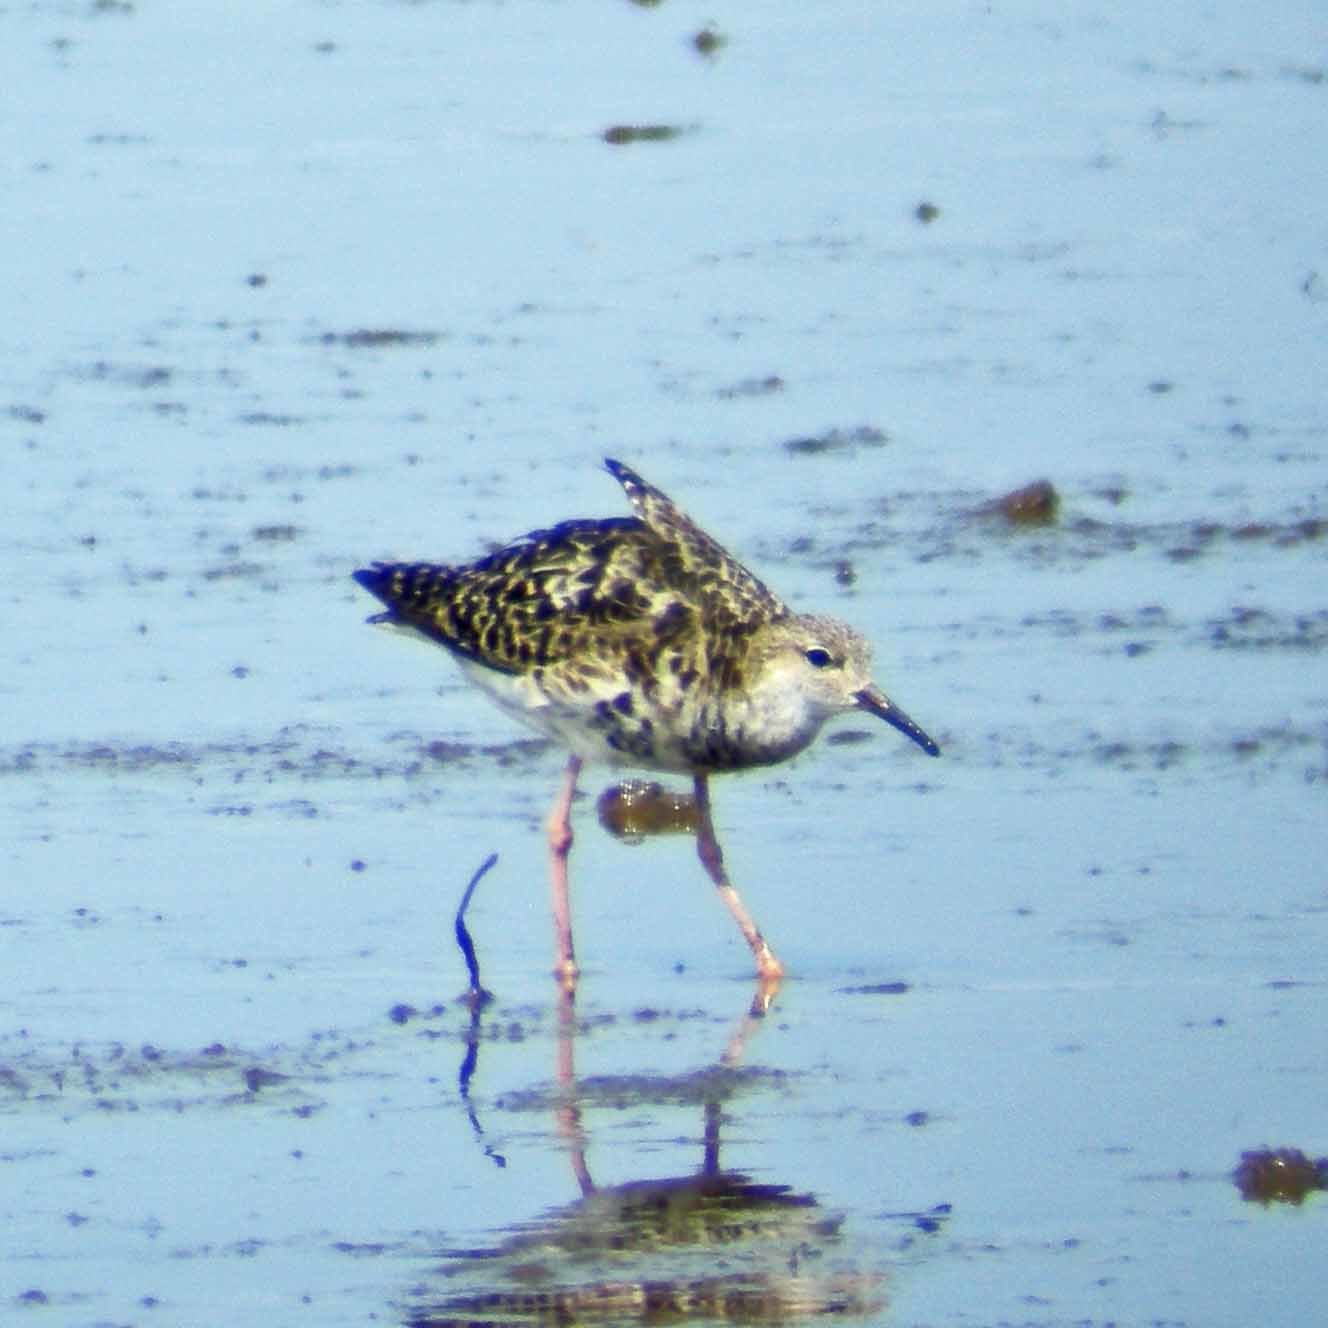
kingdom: Animalia
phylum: Chordata
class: Aves
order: Charadriiformes
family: Scolopacidae
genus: Calidris
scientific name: Calidris pugnax
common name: Ruff
